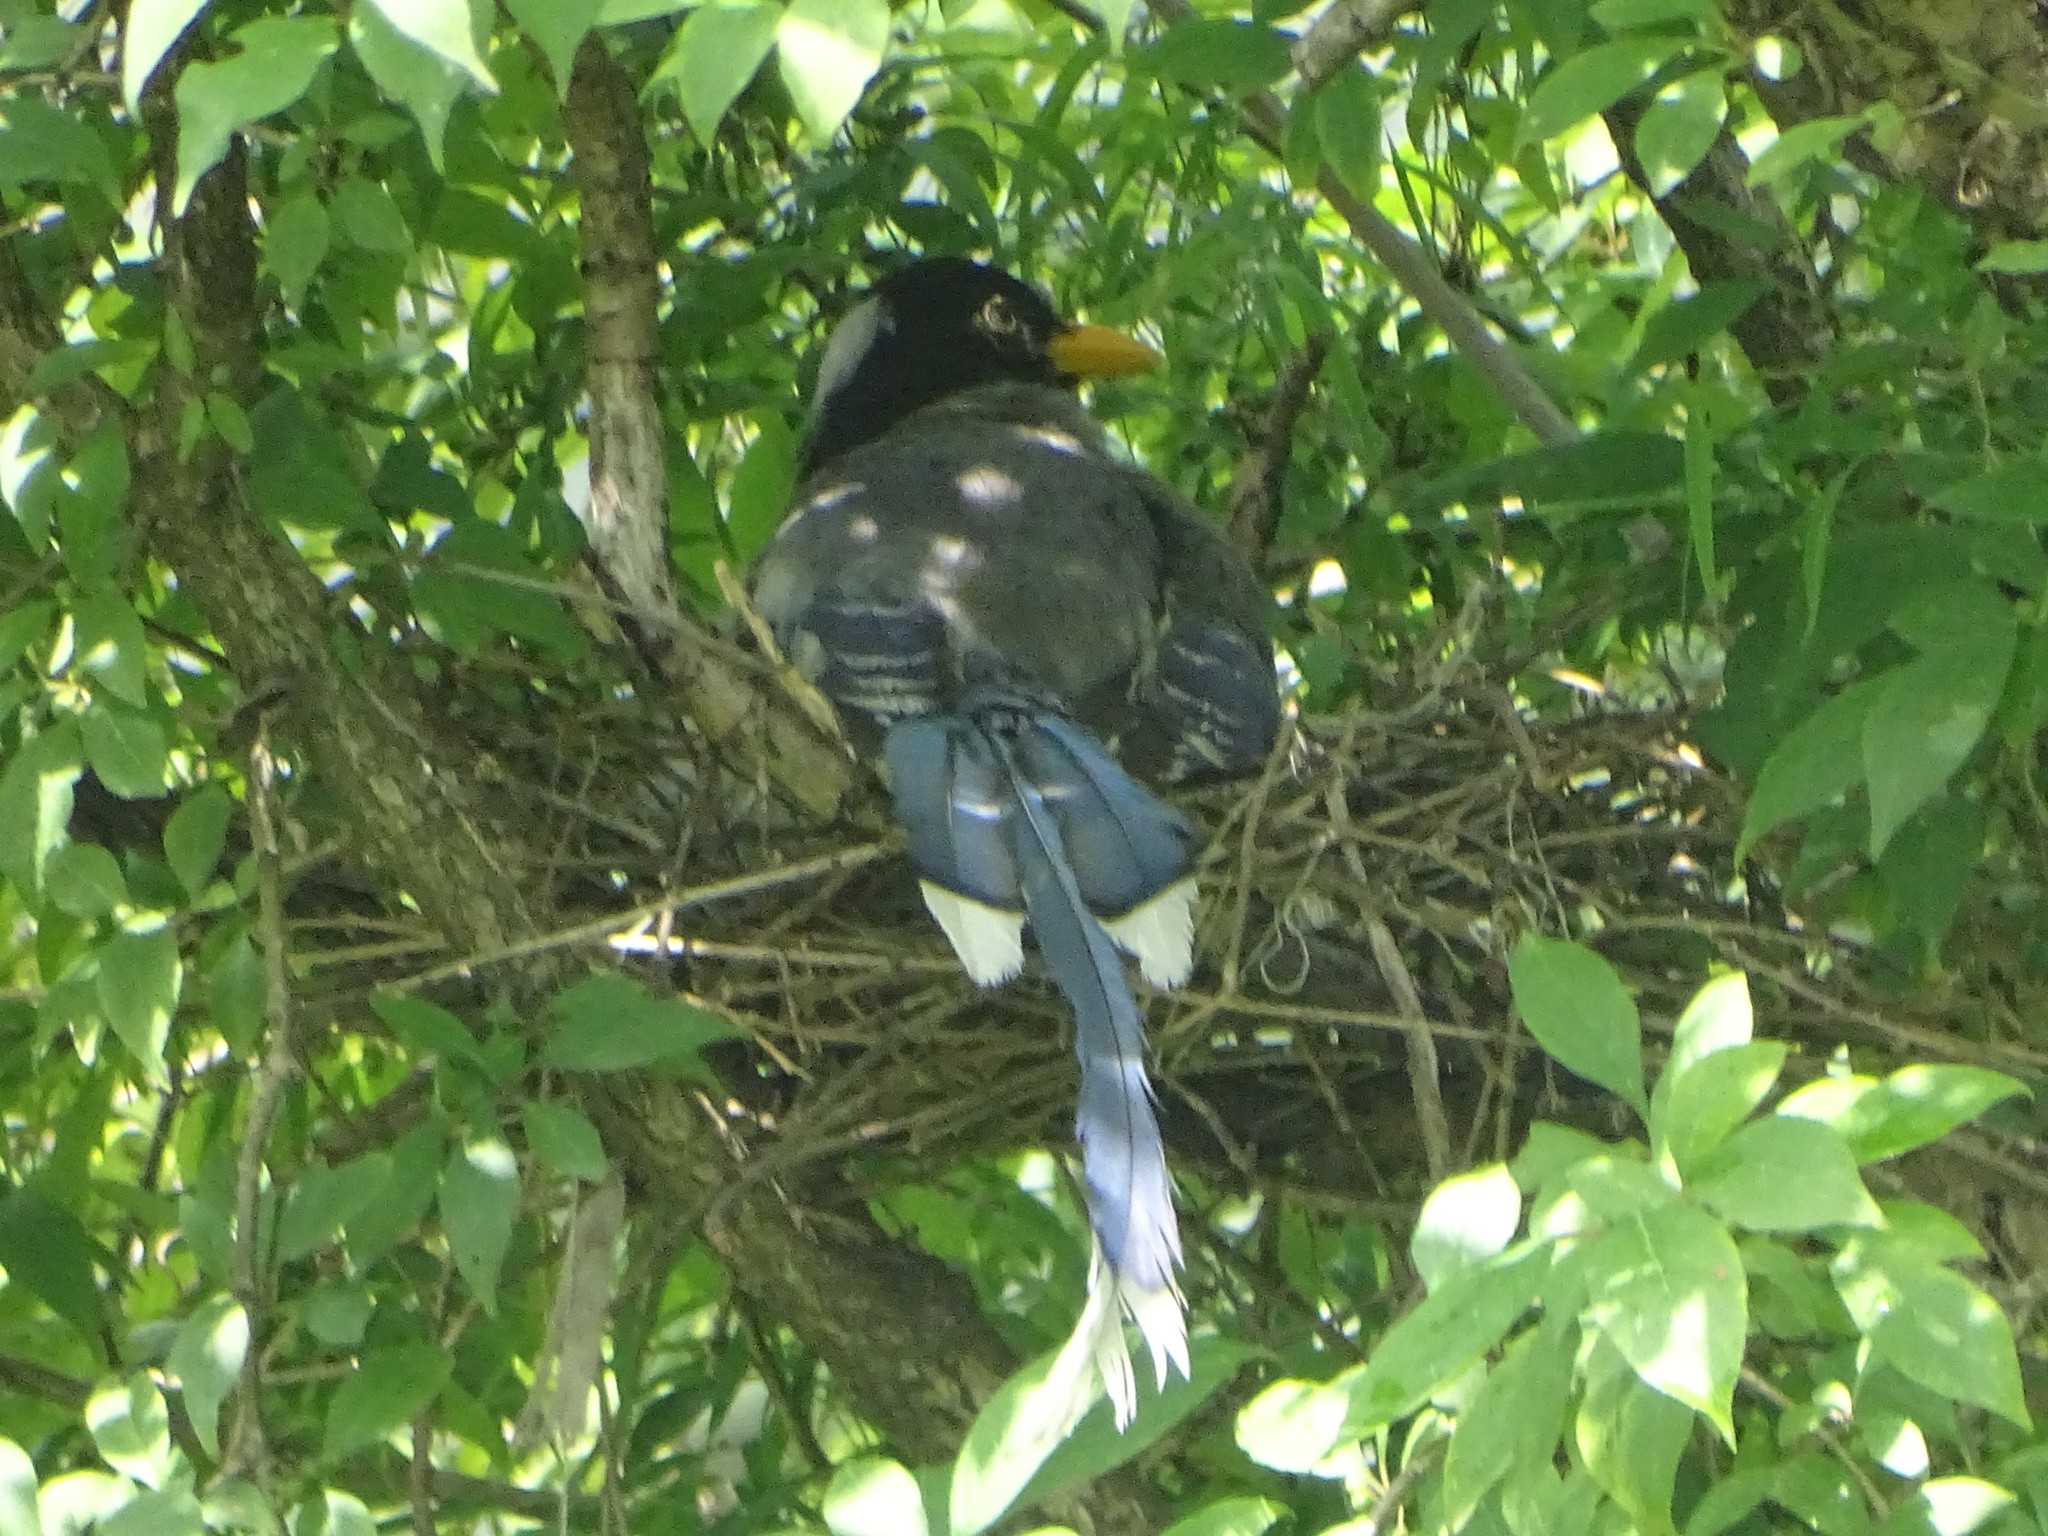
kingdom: Animalia
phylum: Chordata
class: Aves
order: Passeriformes
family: Corvidae
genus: Urocissa
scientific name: Urocissa erythroryncha
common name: Red-billed blue magpie
